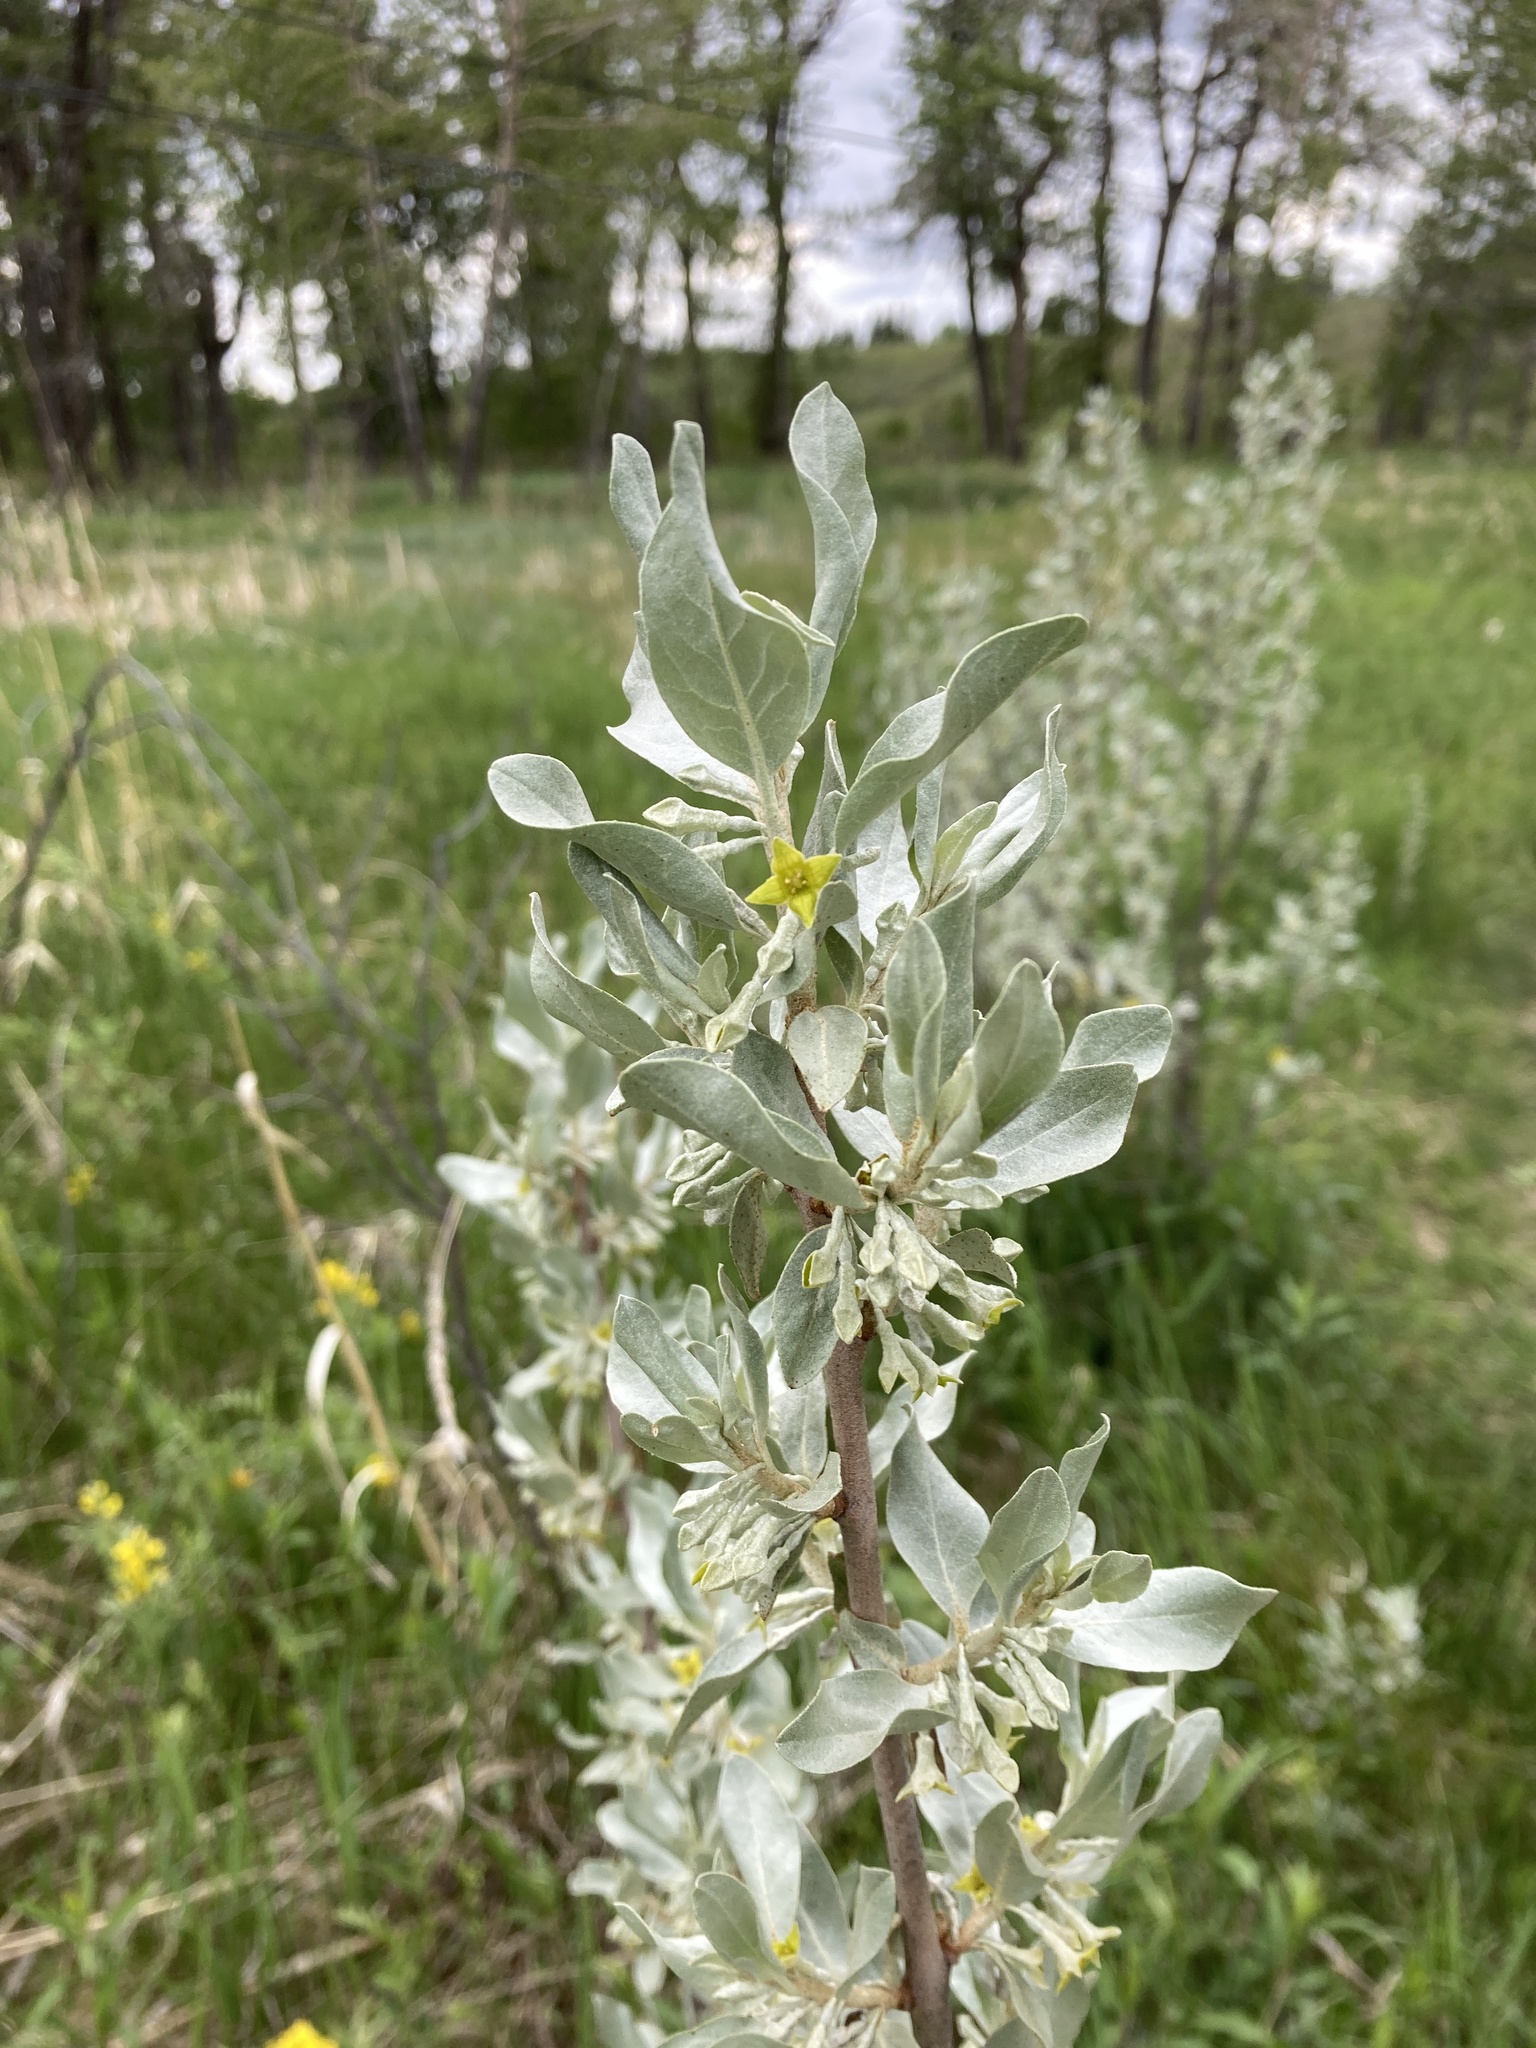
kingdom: Plantae
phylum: Tracheophyta
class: Magnoliopsida
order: Rosales
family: Elaeagnaceae
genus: Elaeagnus
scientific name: Elaeagnus commutata
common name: Silverberry
